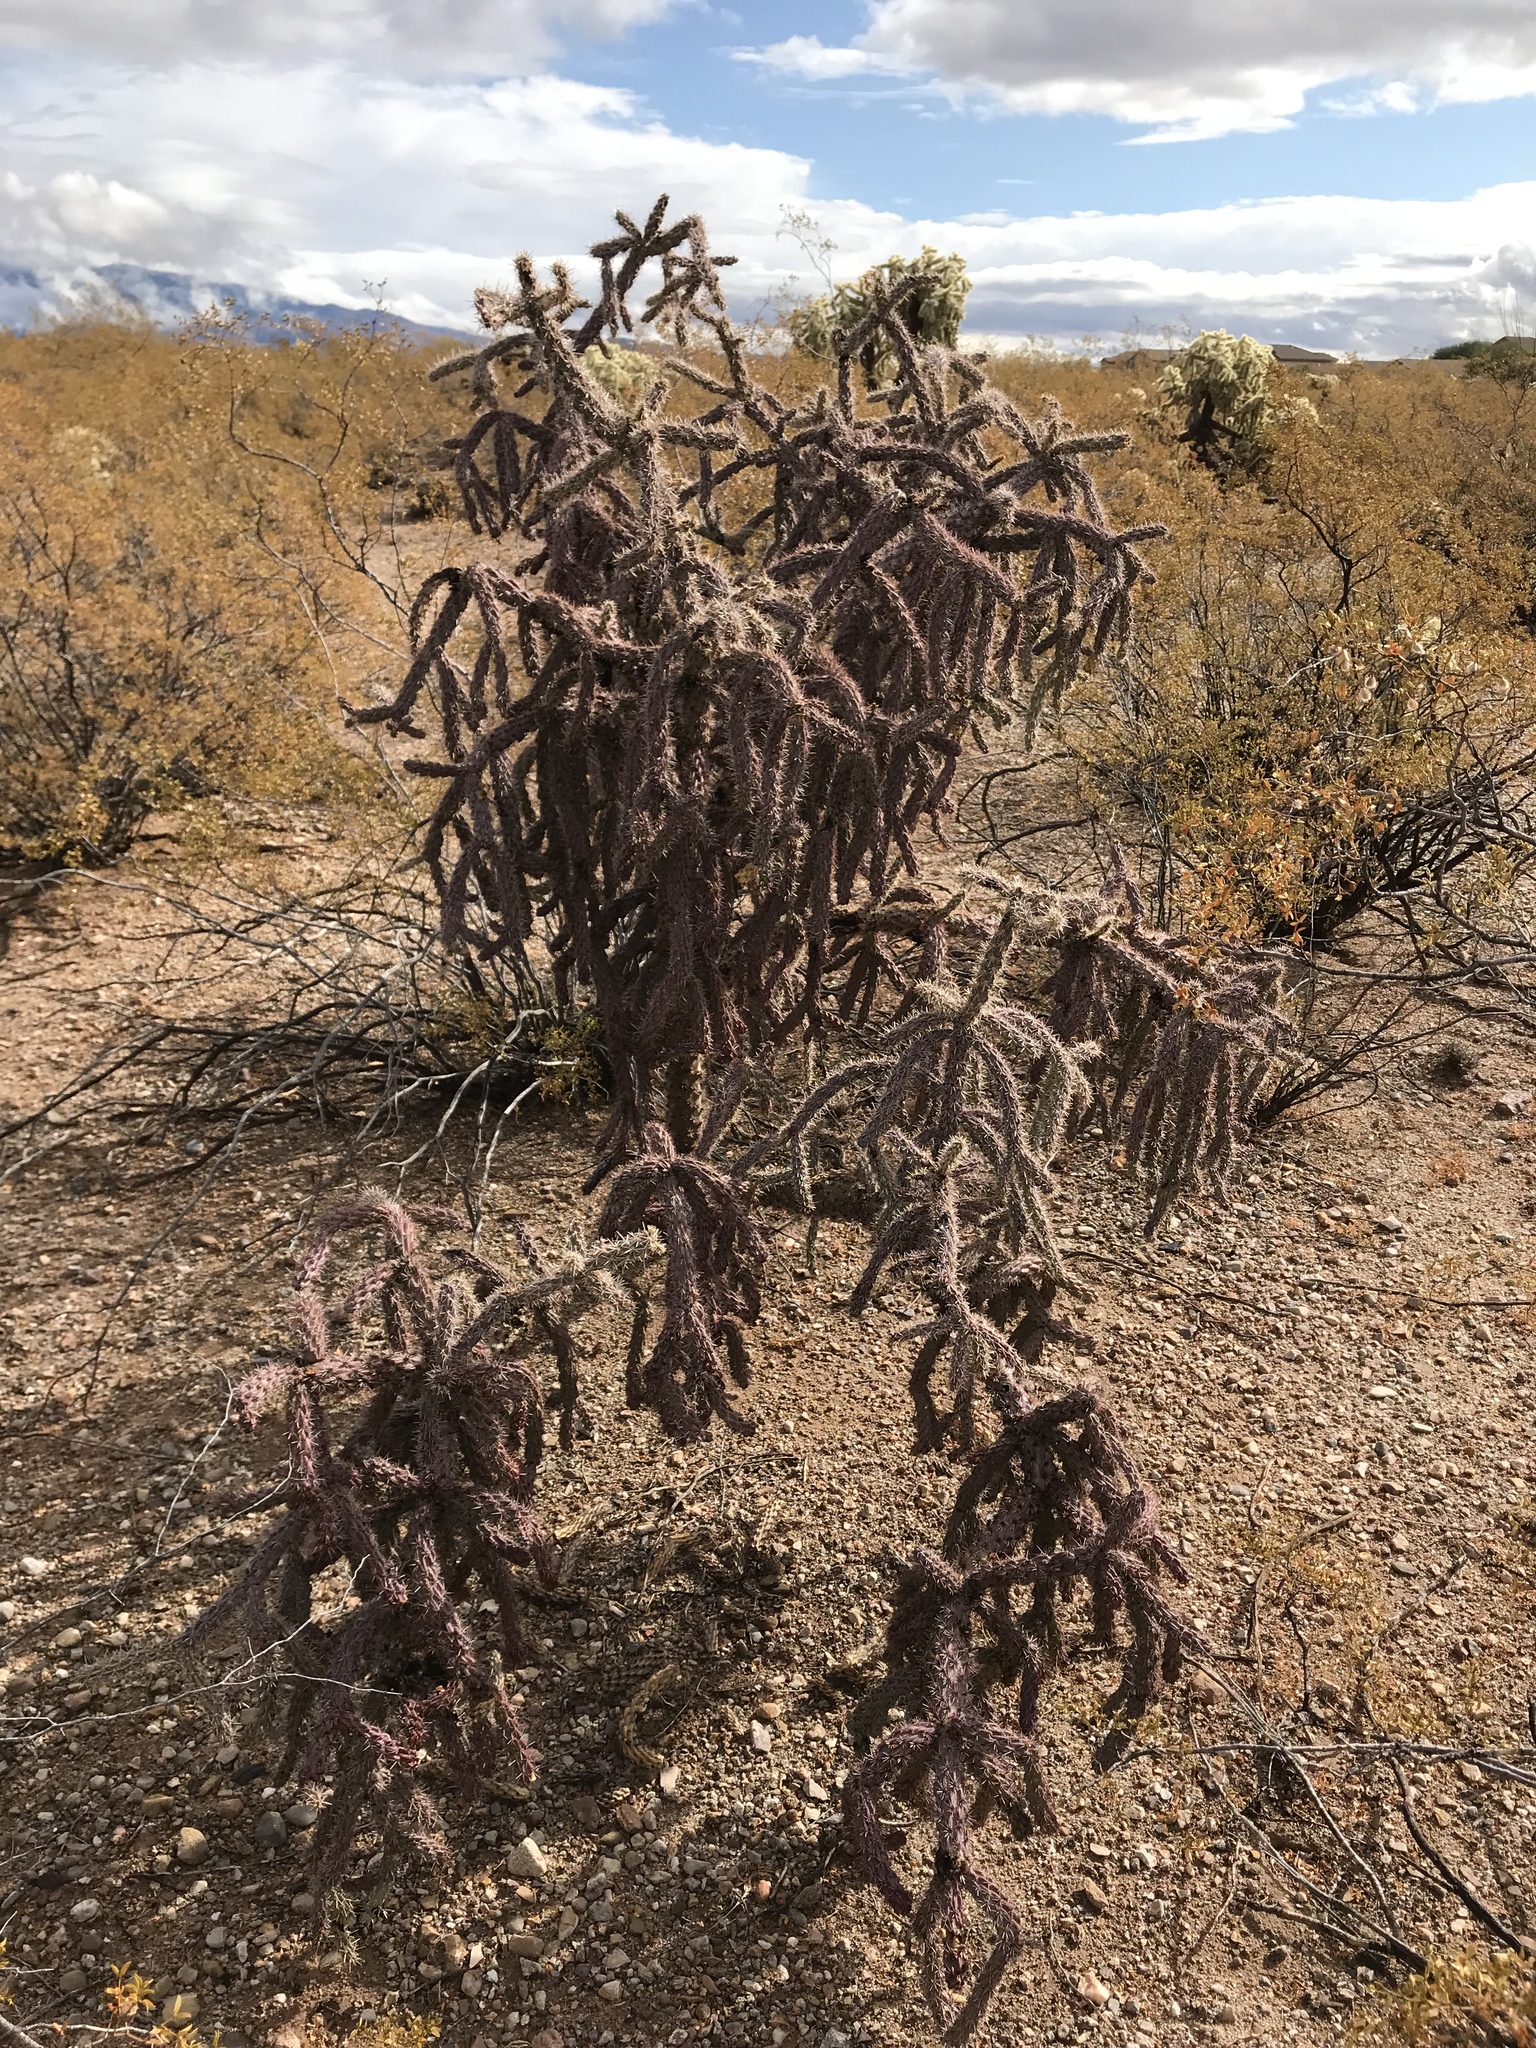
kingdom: Plantae
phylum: Tracheophyta
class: Magnoliopsida
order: Caryophyllales
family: Cactaceae
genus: Cylindropuntia
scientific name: Cylindropuntia thurberi
